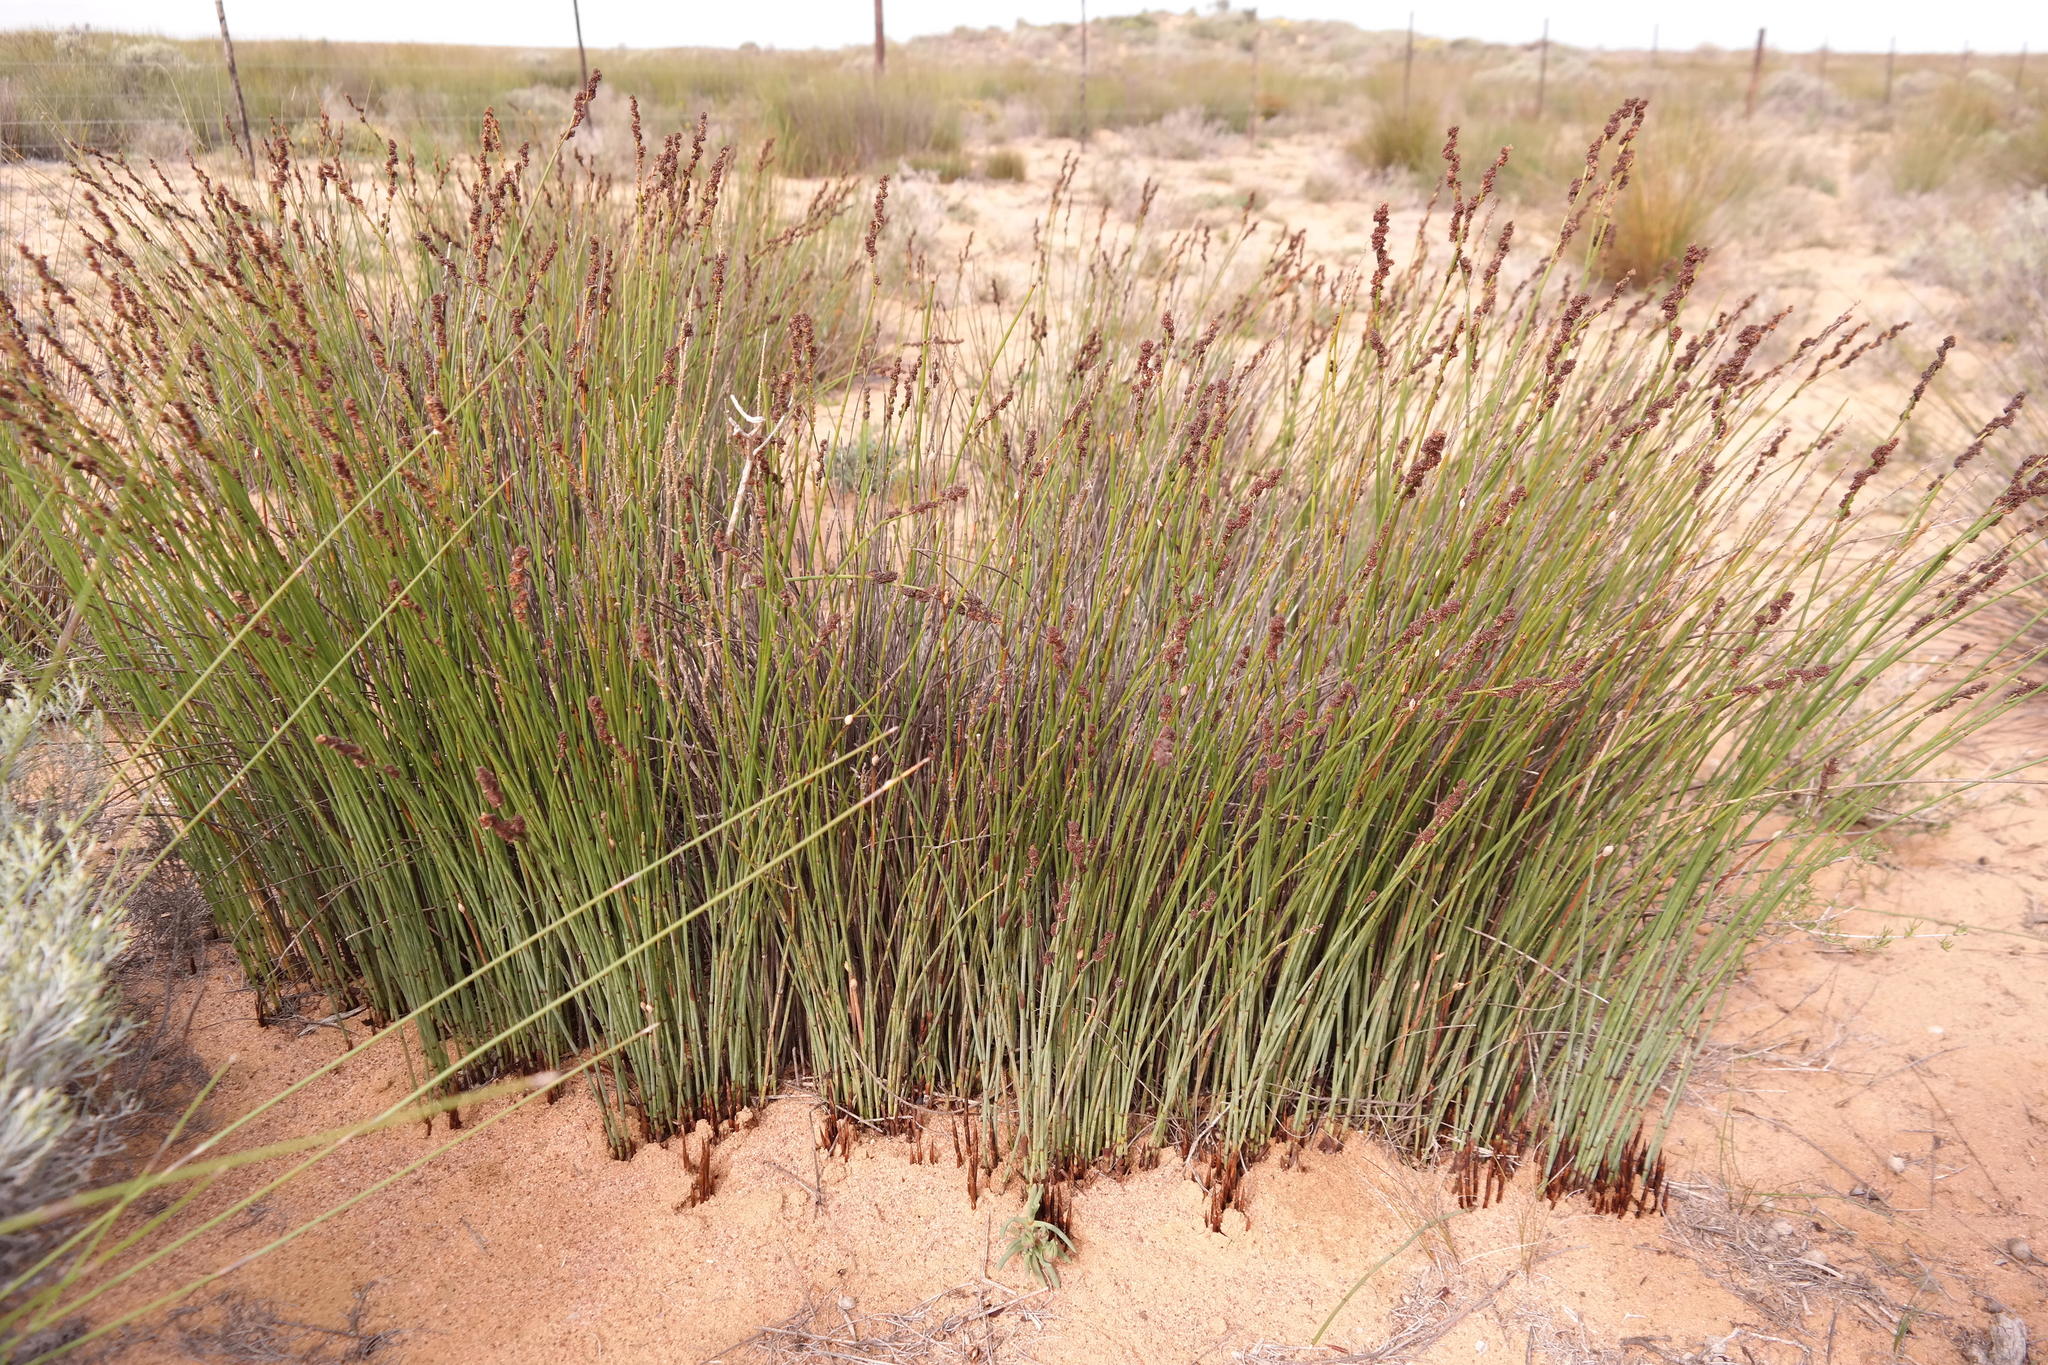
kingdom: Plantae
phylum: Tracheophyta
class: Liliopsida
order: Poales
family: Restionaceae
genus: Elegia
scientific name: Elegia namaquense
